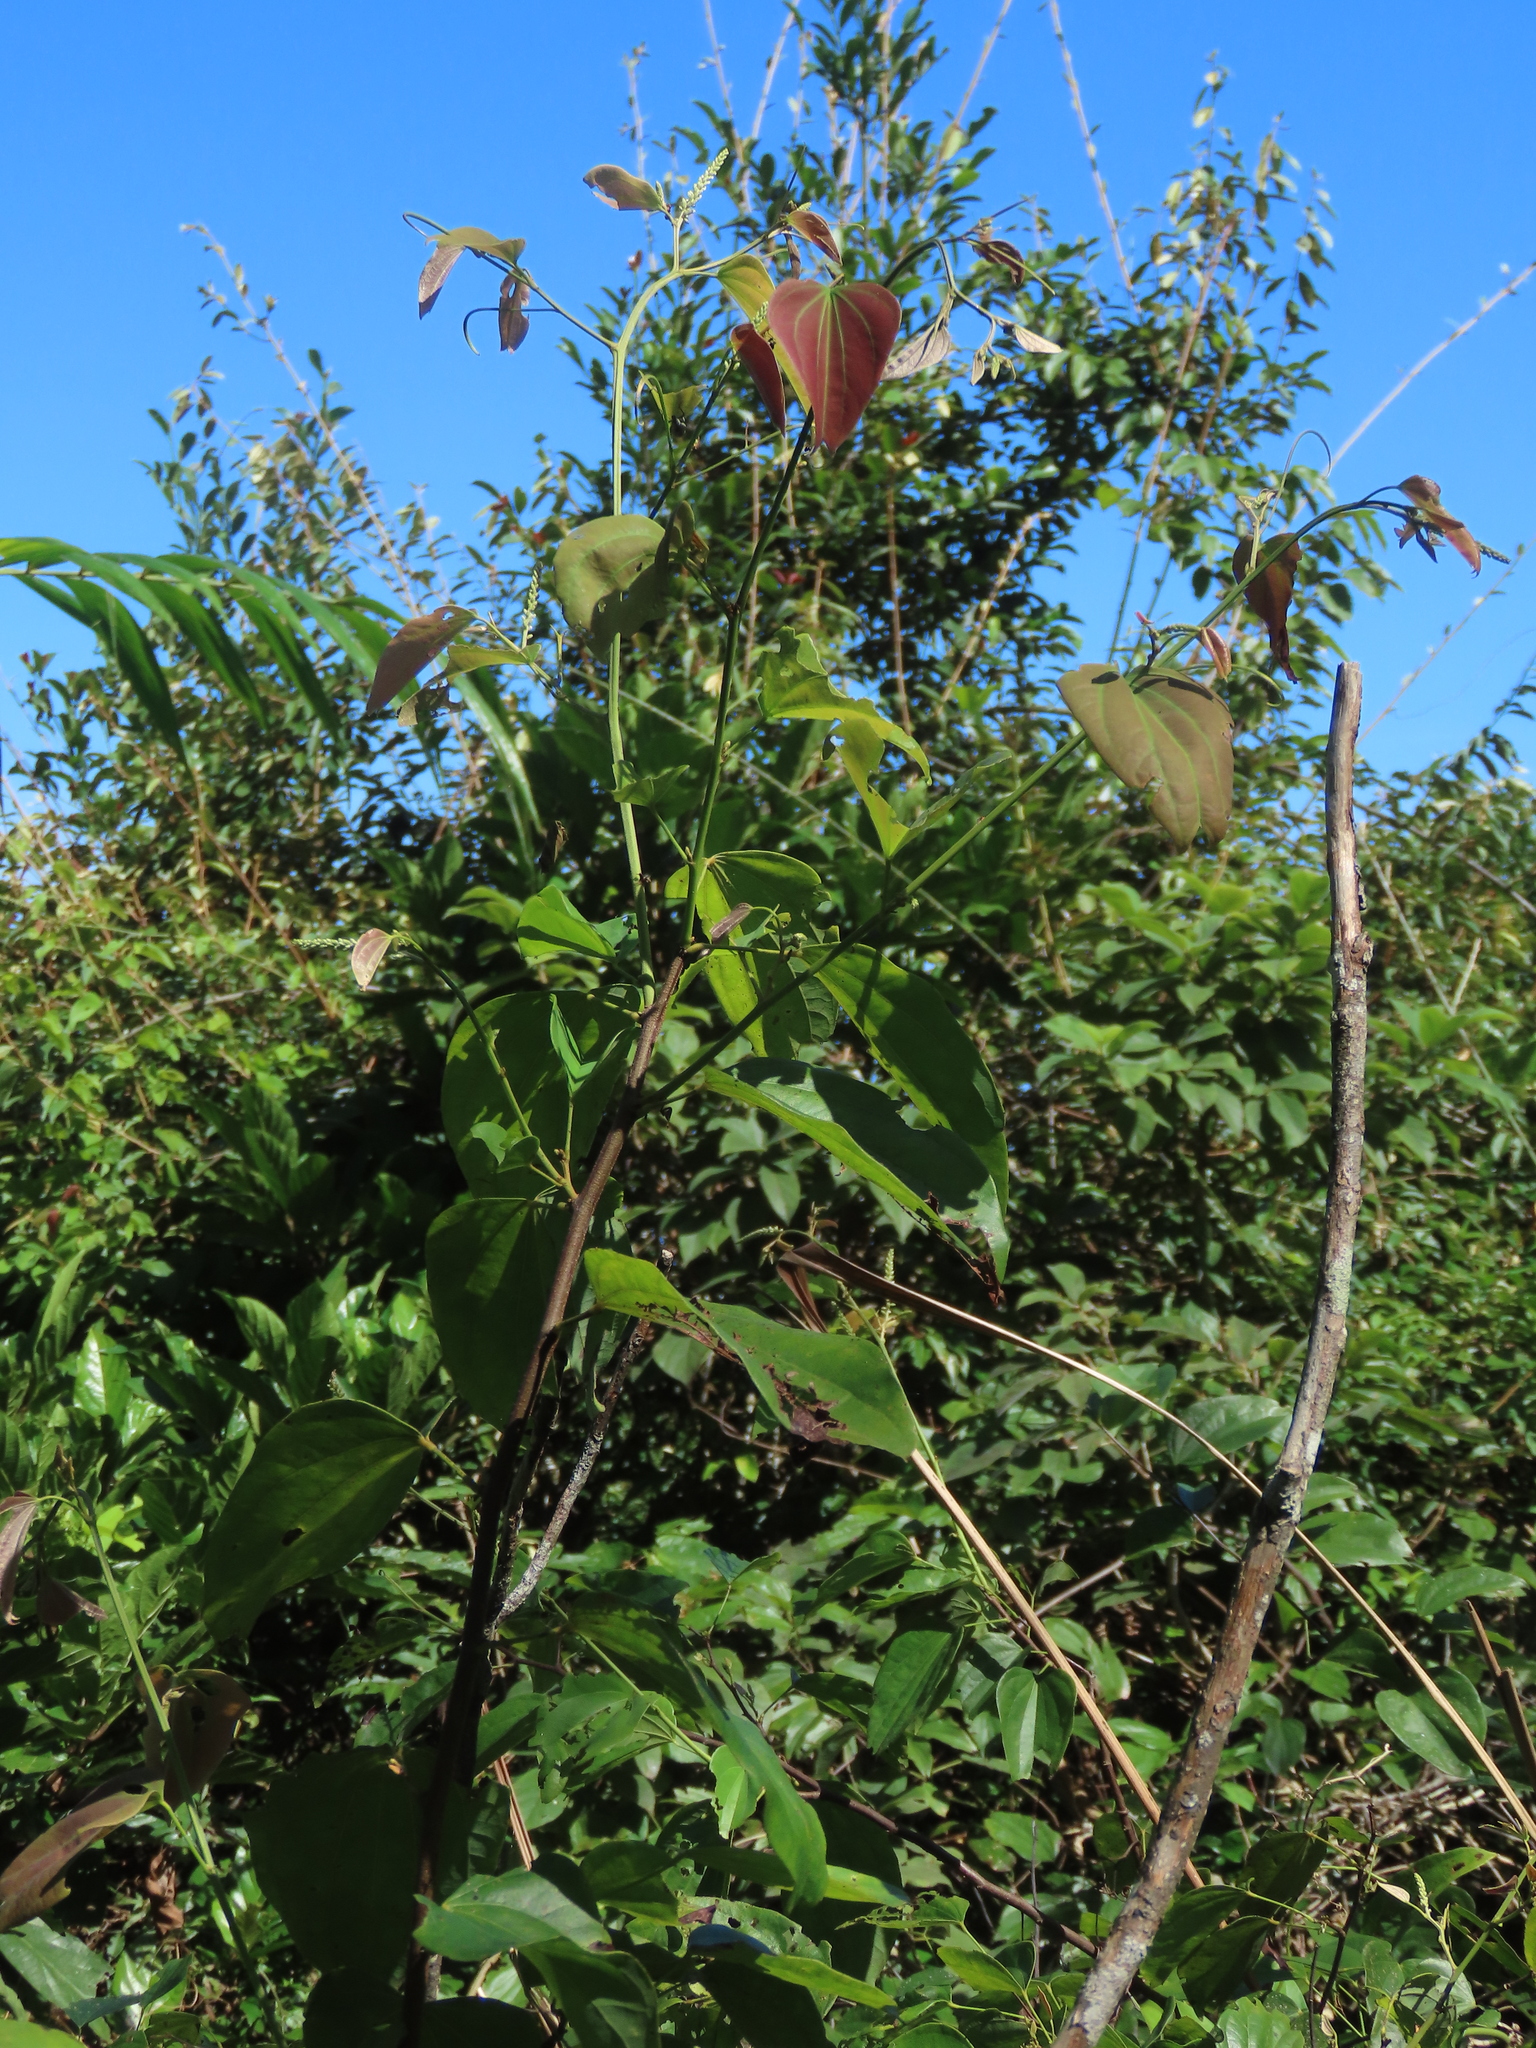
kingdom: Plantae
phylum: Tracheophyta
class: Magnoliopsida
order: Fabales
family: Fabaceae
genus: Phanera
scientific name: Phanera championii
